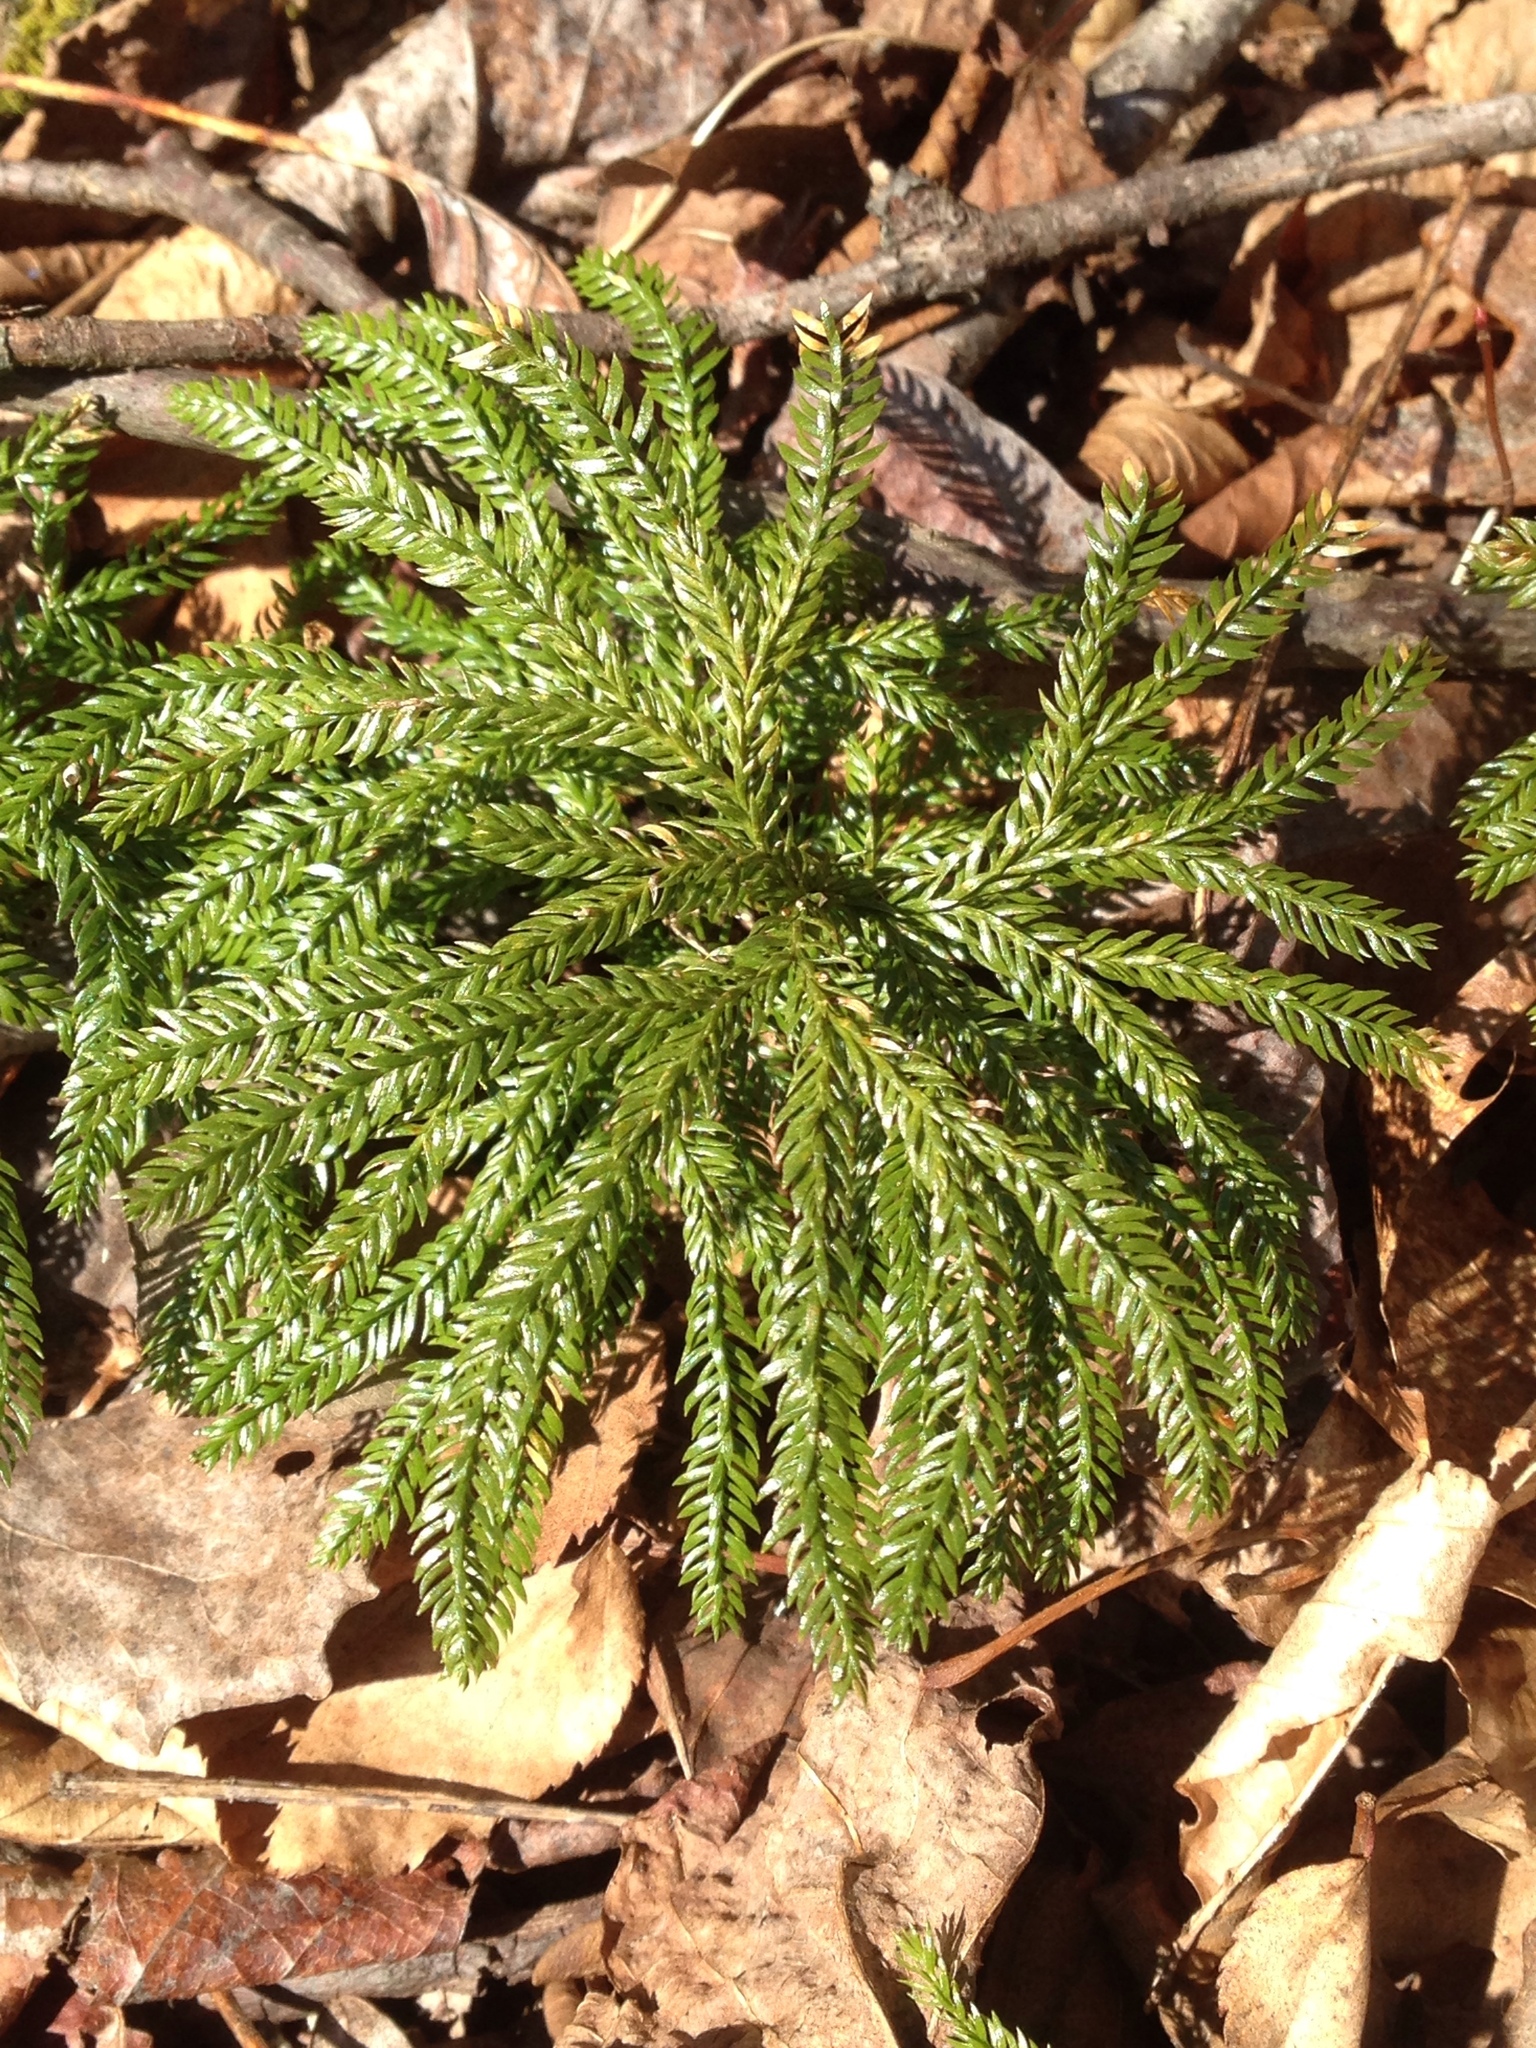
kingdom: Plantae
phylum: Tracheophyta
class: Lycopodiopsida
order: Lycopodiales
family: Lycopodiaceae
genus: Dendrolycopodium
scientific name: Dendrolycopodium obscurum
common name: Common ground-pine
